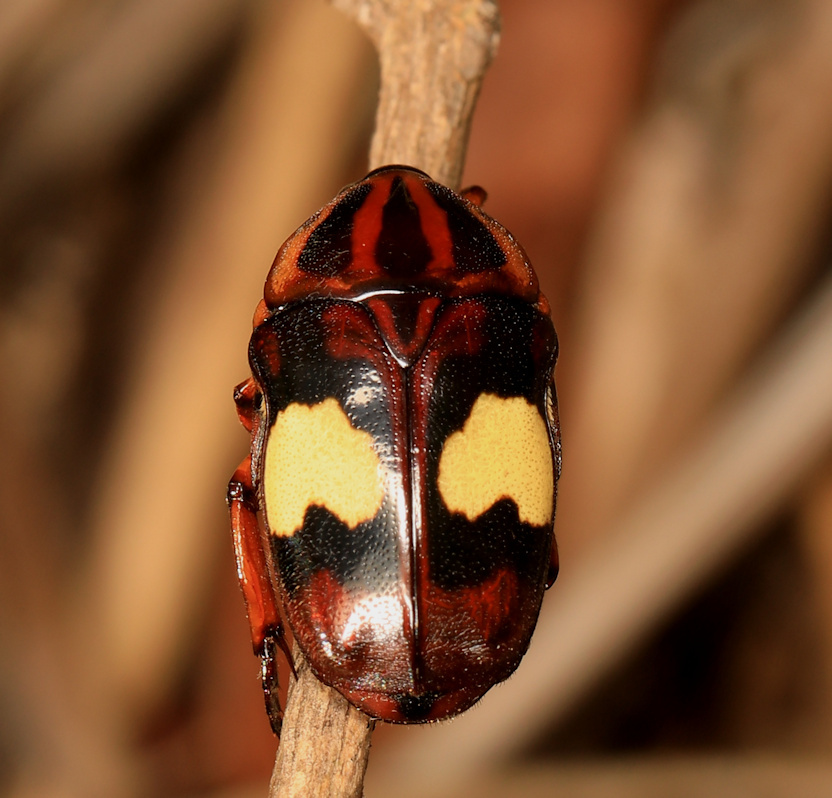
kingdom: Animalia
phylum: Arthropoda
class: Insecta
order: Coleoptera
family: Scarabaeidae
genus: Pedinorrhina
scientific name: Pedinorrhina
